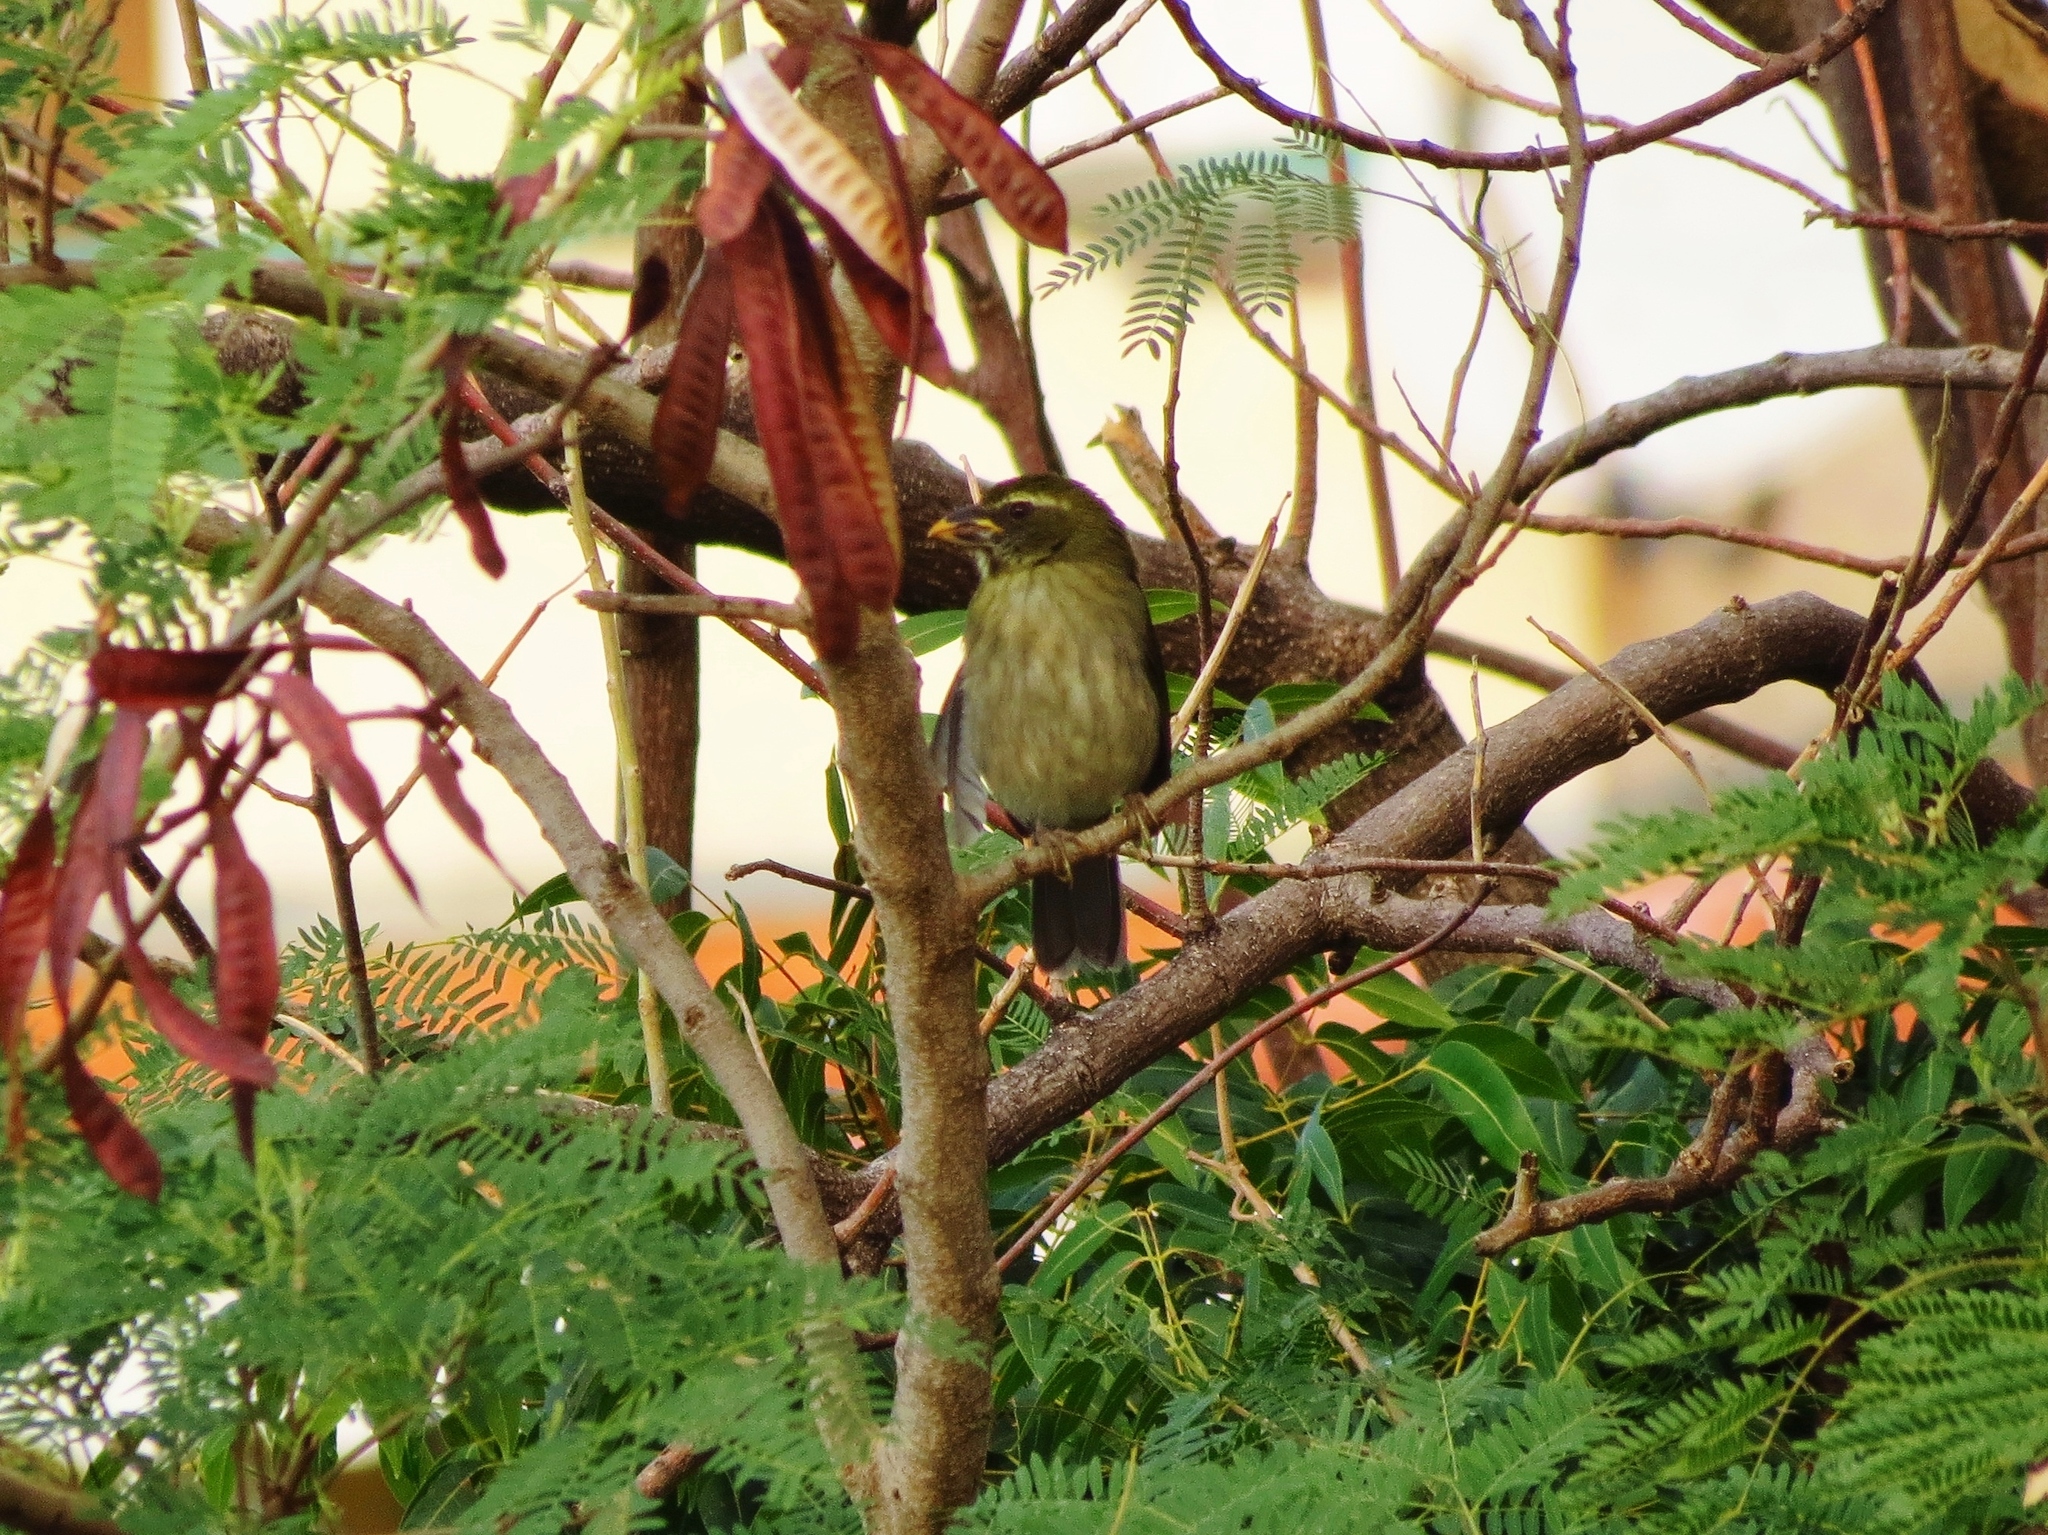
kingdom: Animalia
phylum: Chordata
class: Aves
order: Passeriformes
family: Thraupidae
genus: Saltator
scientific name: Saltator albicollis
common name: Lesser antillean saltator
